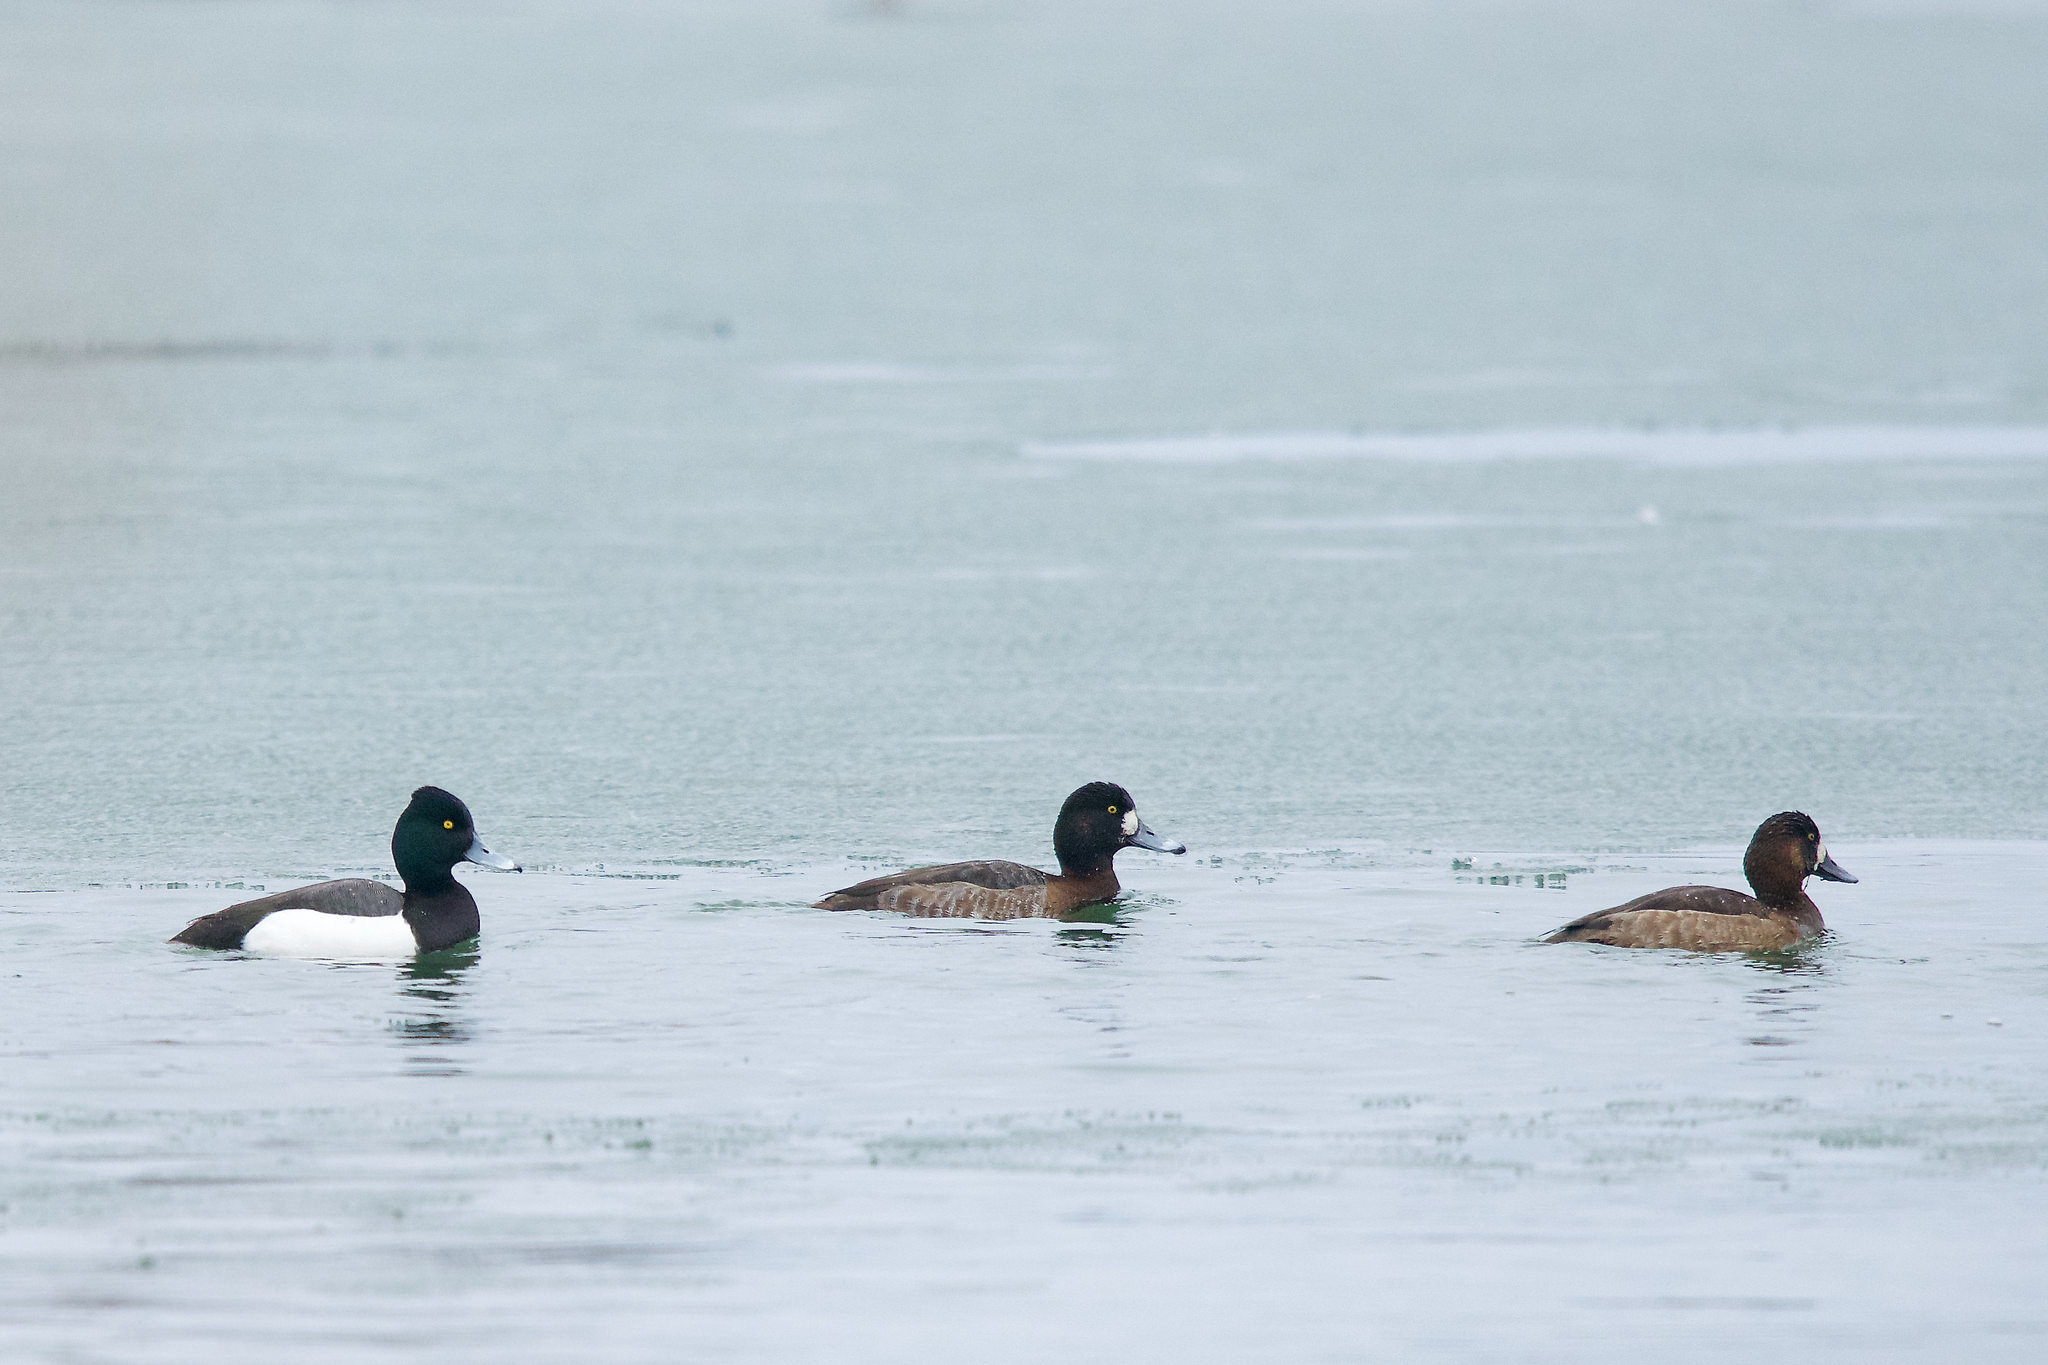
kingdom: Animalia
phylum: Chordata
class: Aves
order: Anseriformes
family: Anatidae
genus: Aythya
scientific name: Aythya
